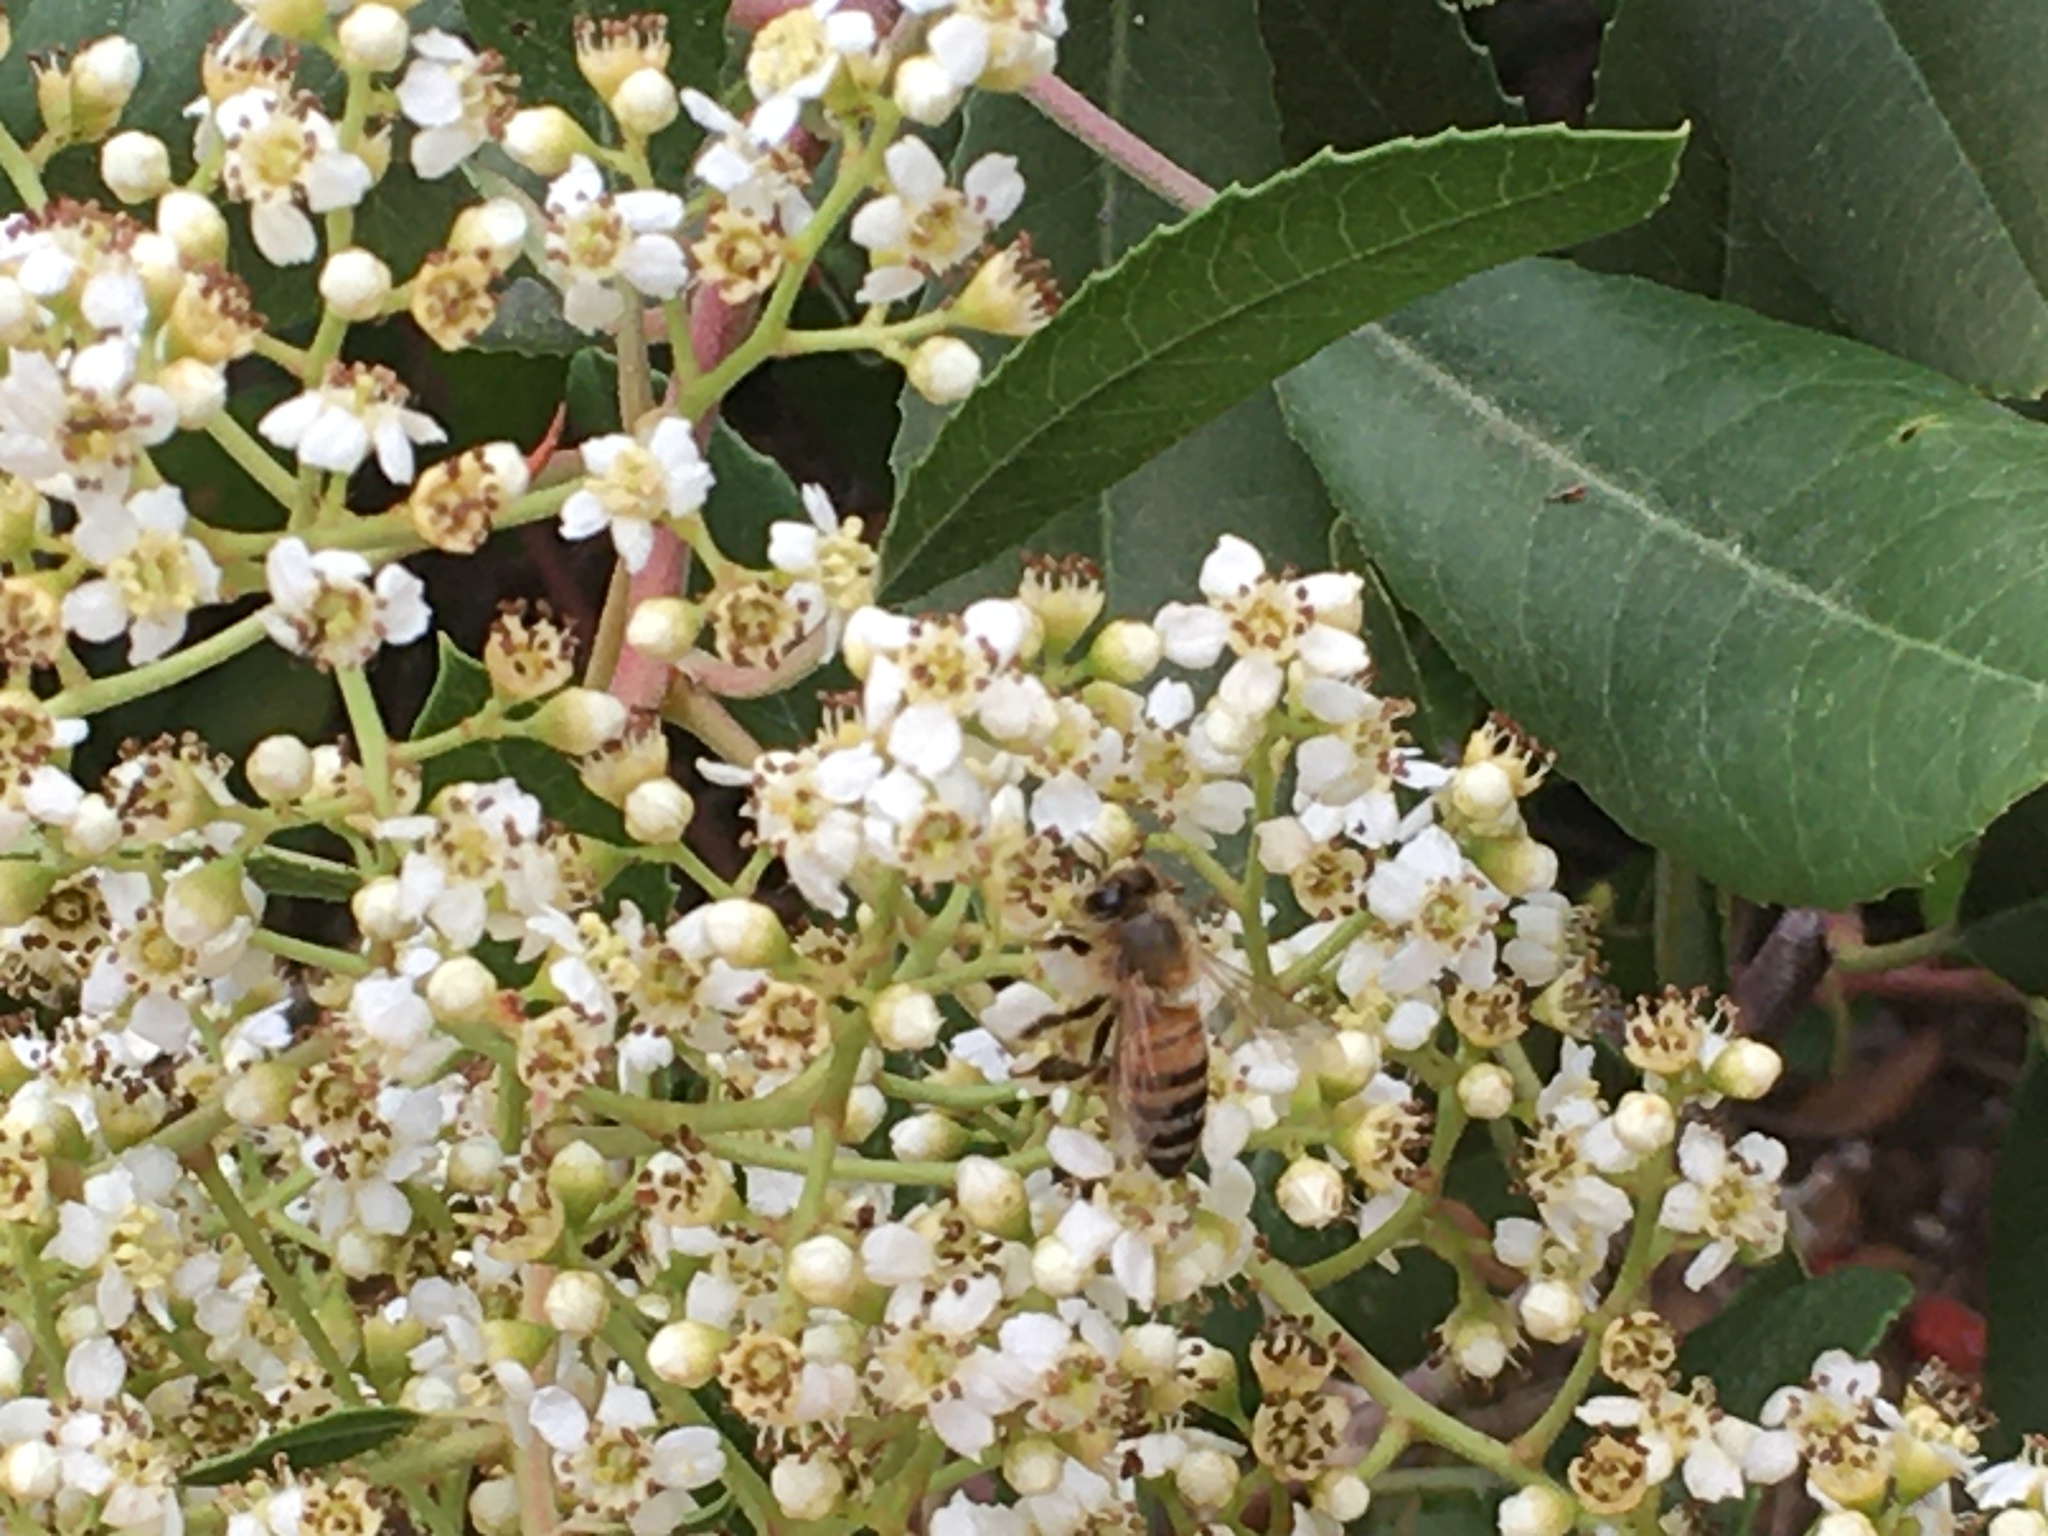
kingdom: Animalia
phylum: Arthropoda
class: Insecta
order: Hymenoptera
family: Apidae
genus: Apis
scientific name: Apis mellifera
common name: Honey bee
